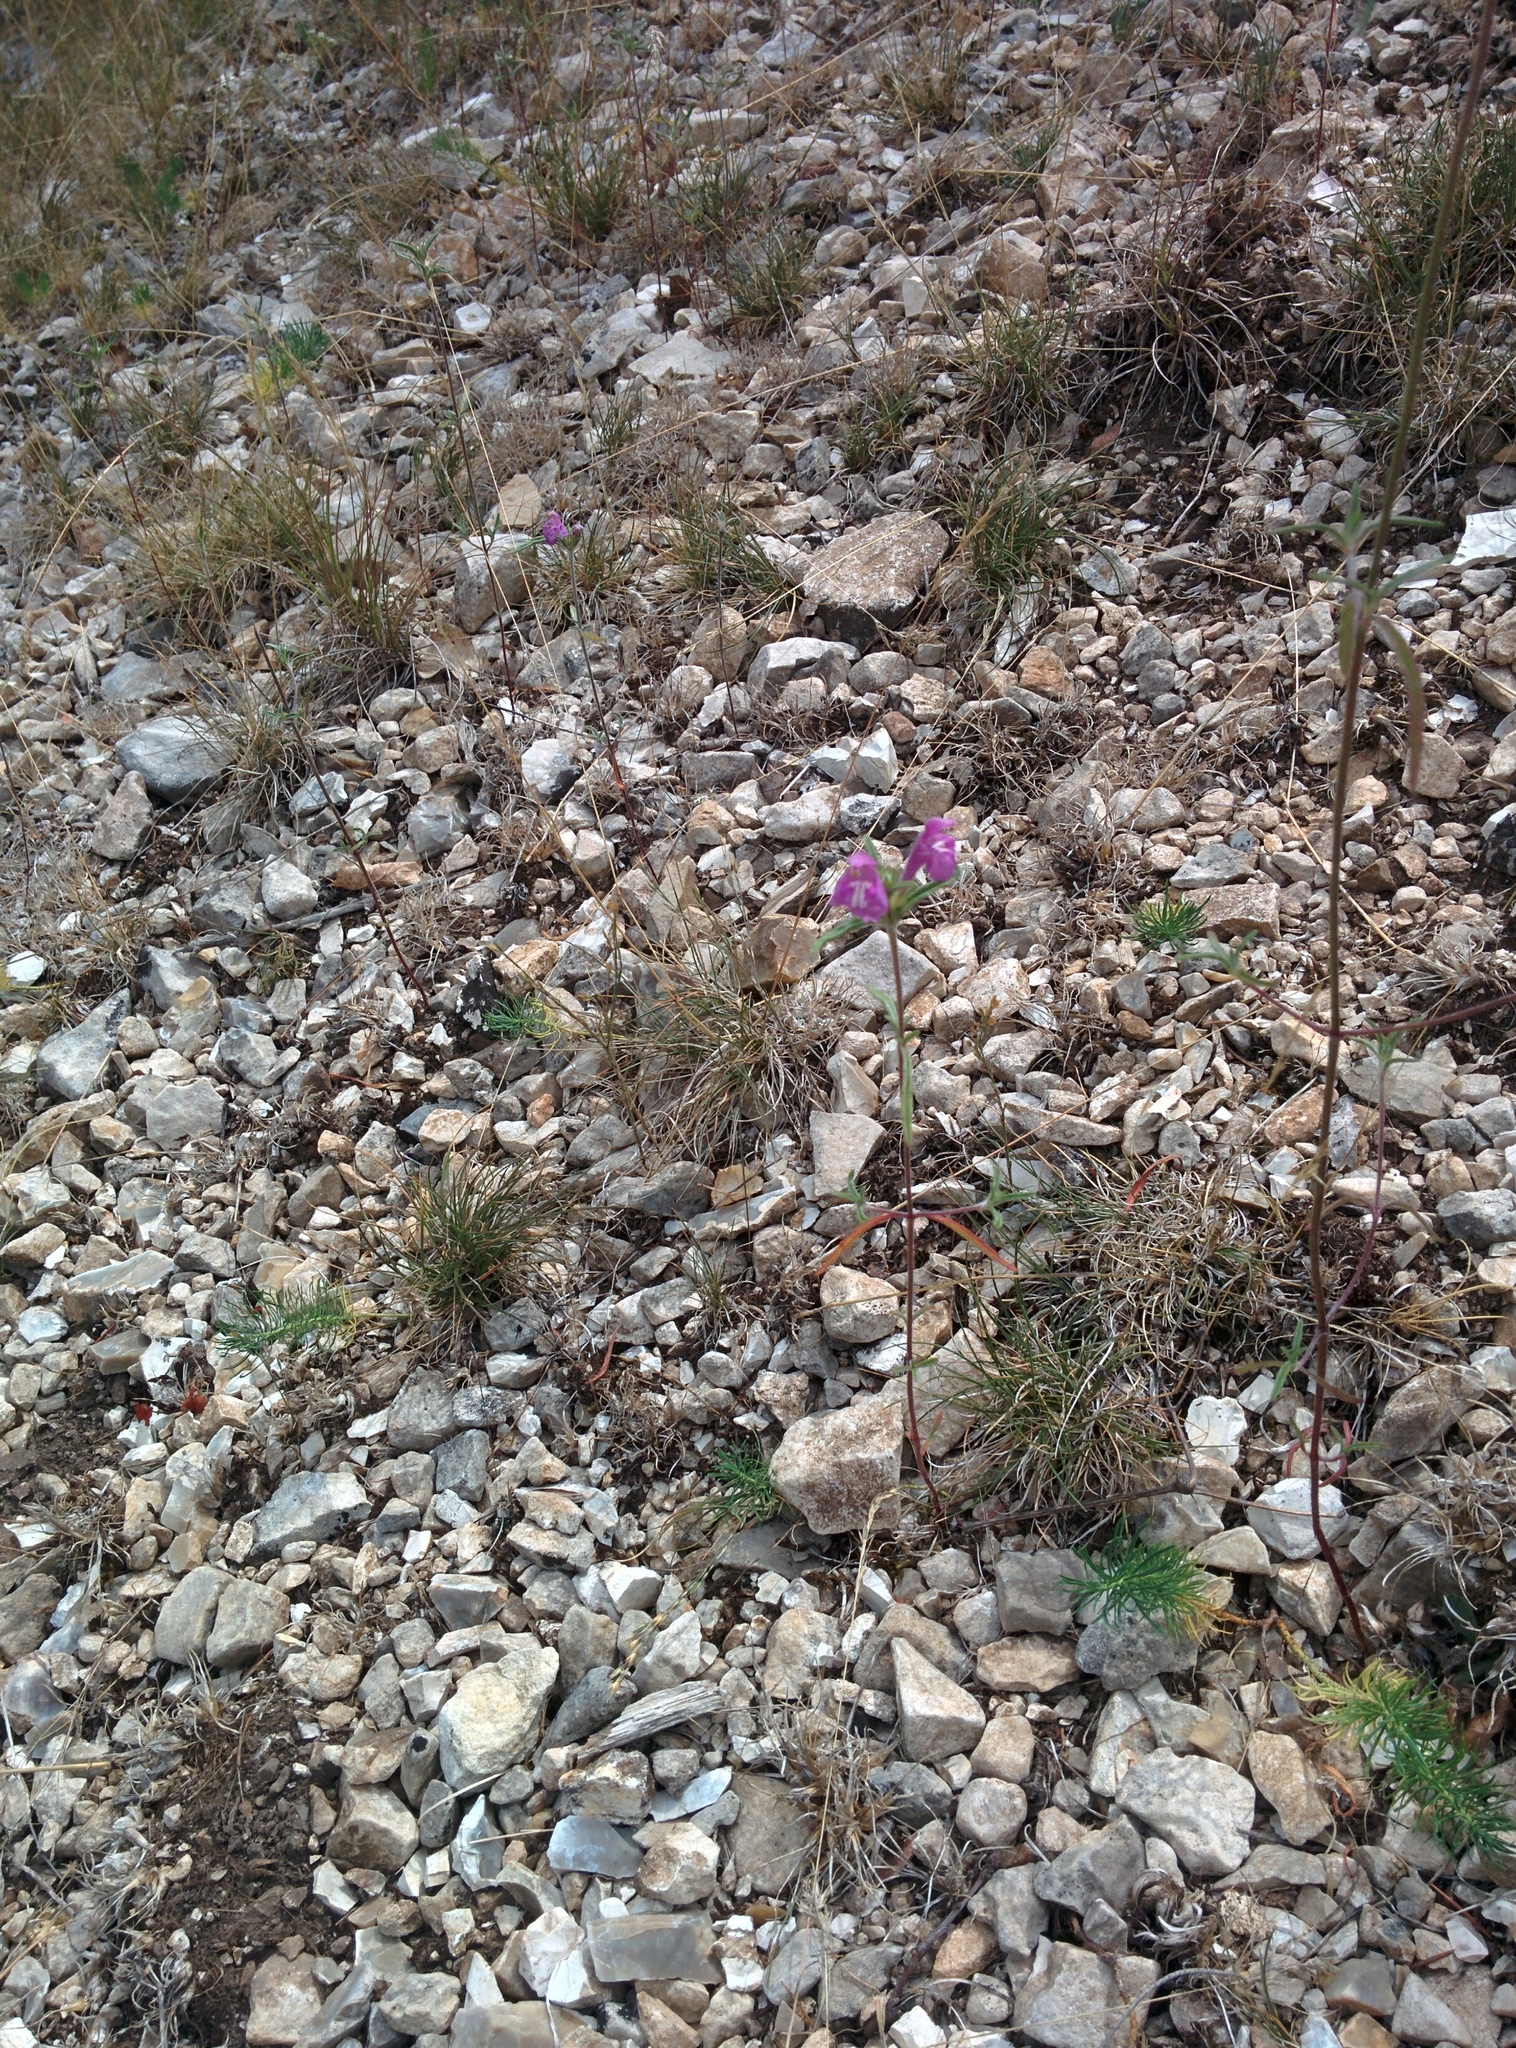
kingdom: Plantae
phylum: Tracheophyta
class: Magnoliopsida
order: Lamiales
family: Lamiaceae
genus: Galeopsis
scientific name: Galeopsis angustifolia
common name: Red hemp-nettle
